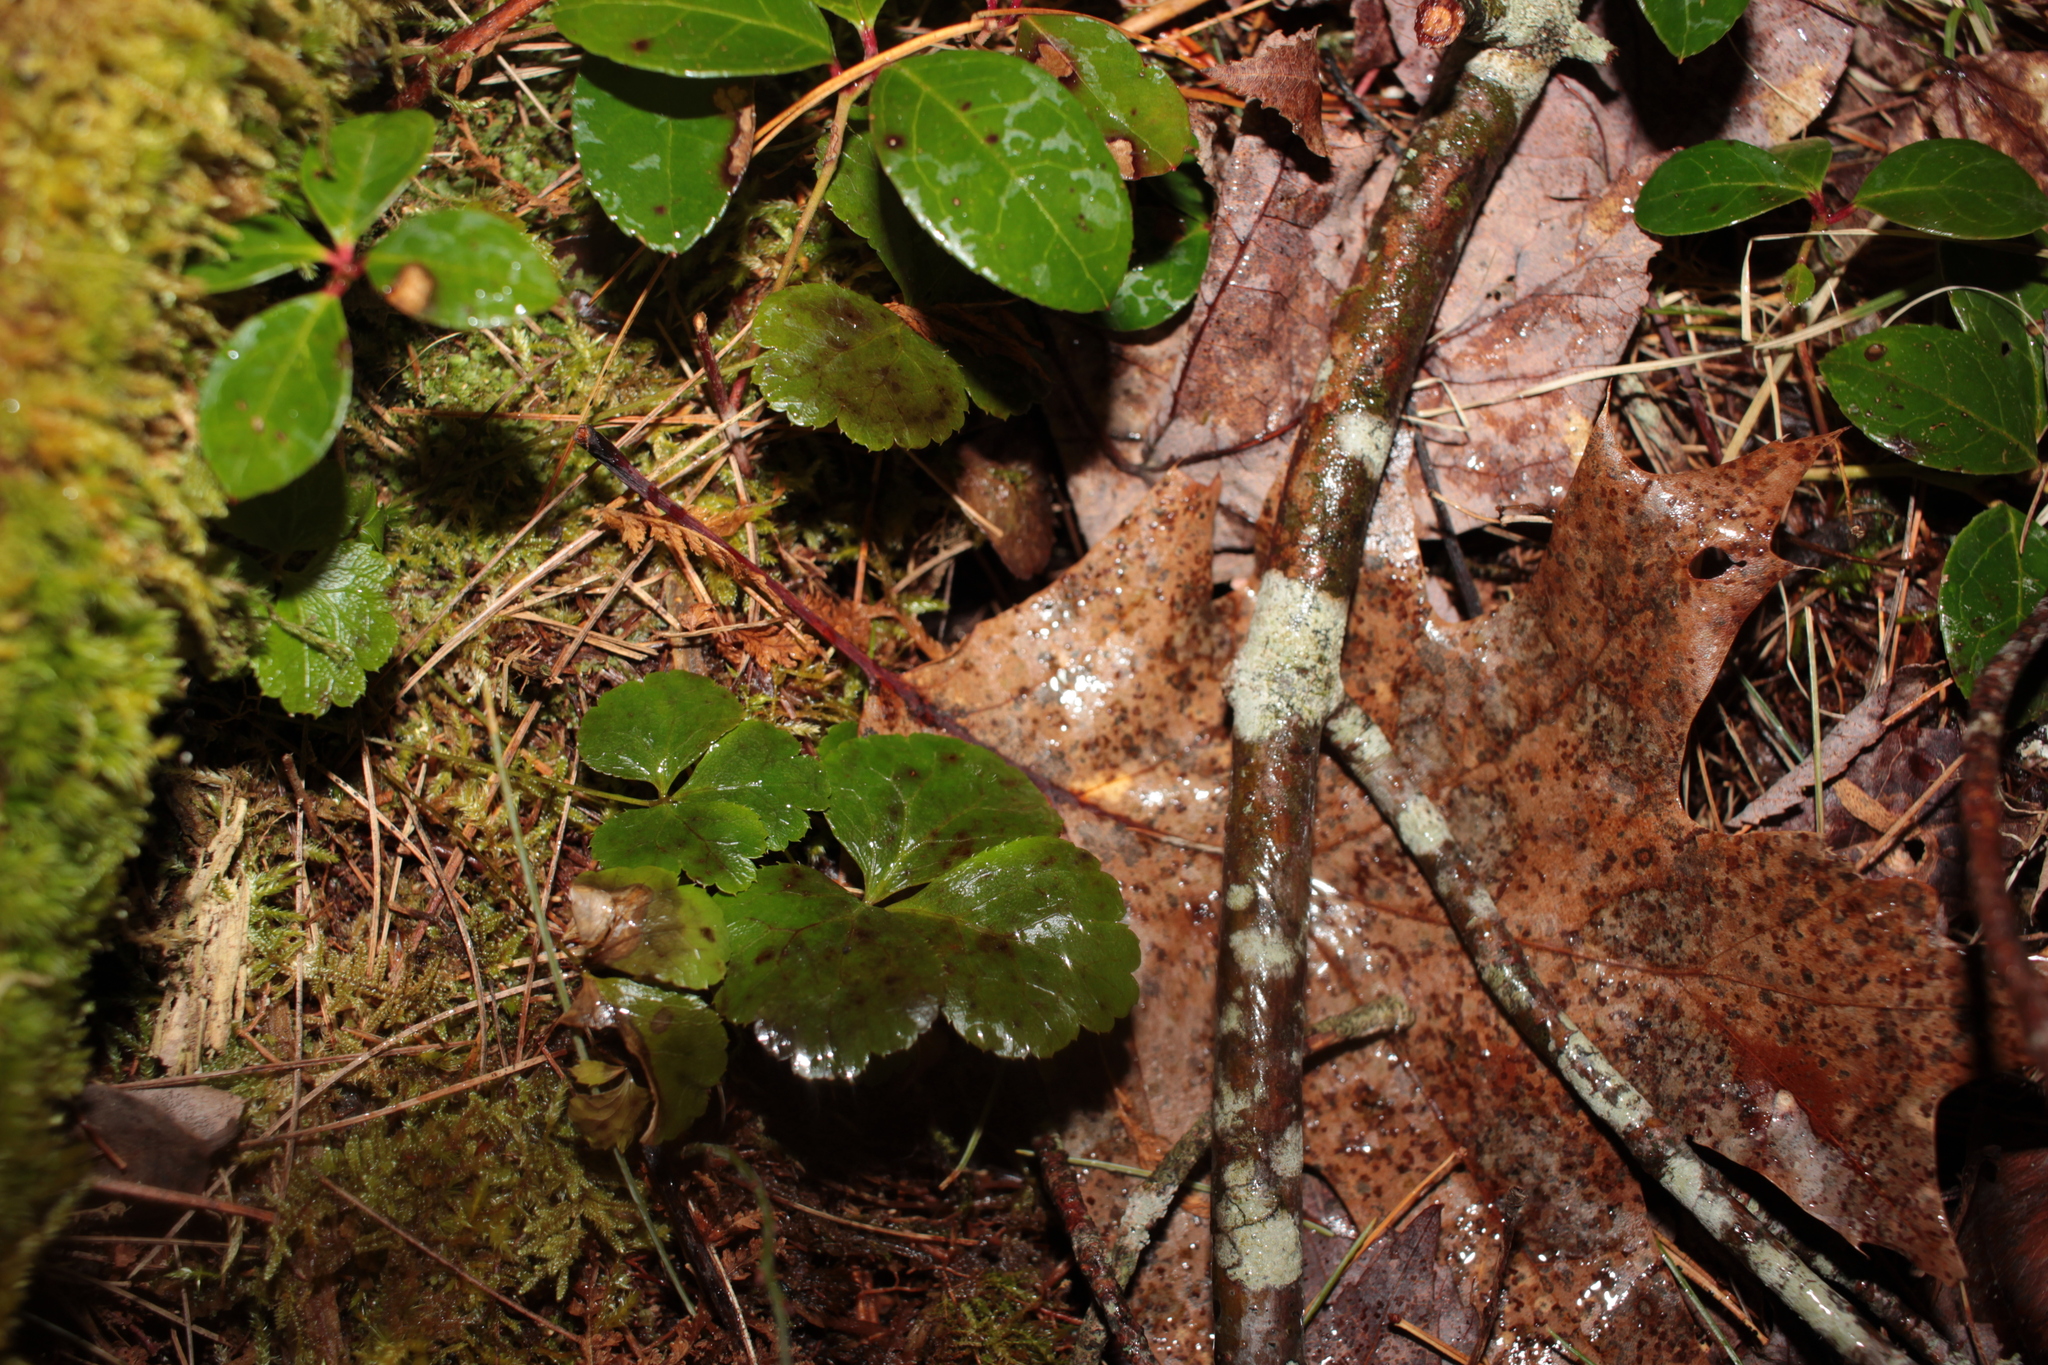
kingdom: Plantae
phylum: Tracheophyta
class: Magnoliopsida
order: Ranunculales
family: Ranunculaceae
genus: Coptis
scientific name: Coptis trifolia
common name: Canker-root
